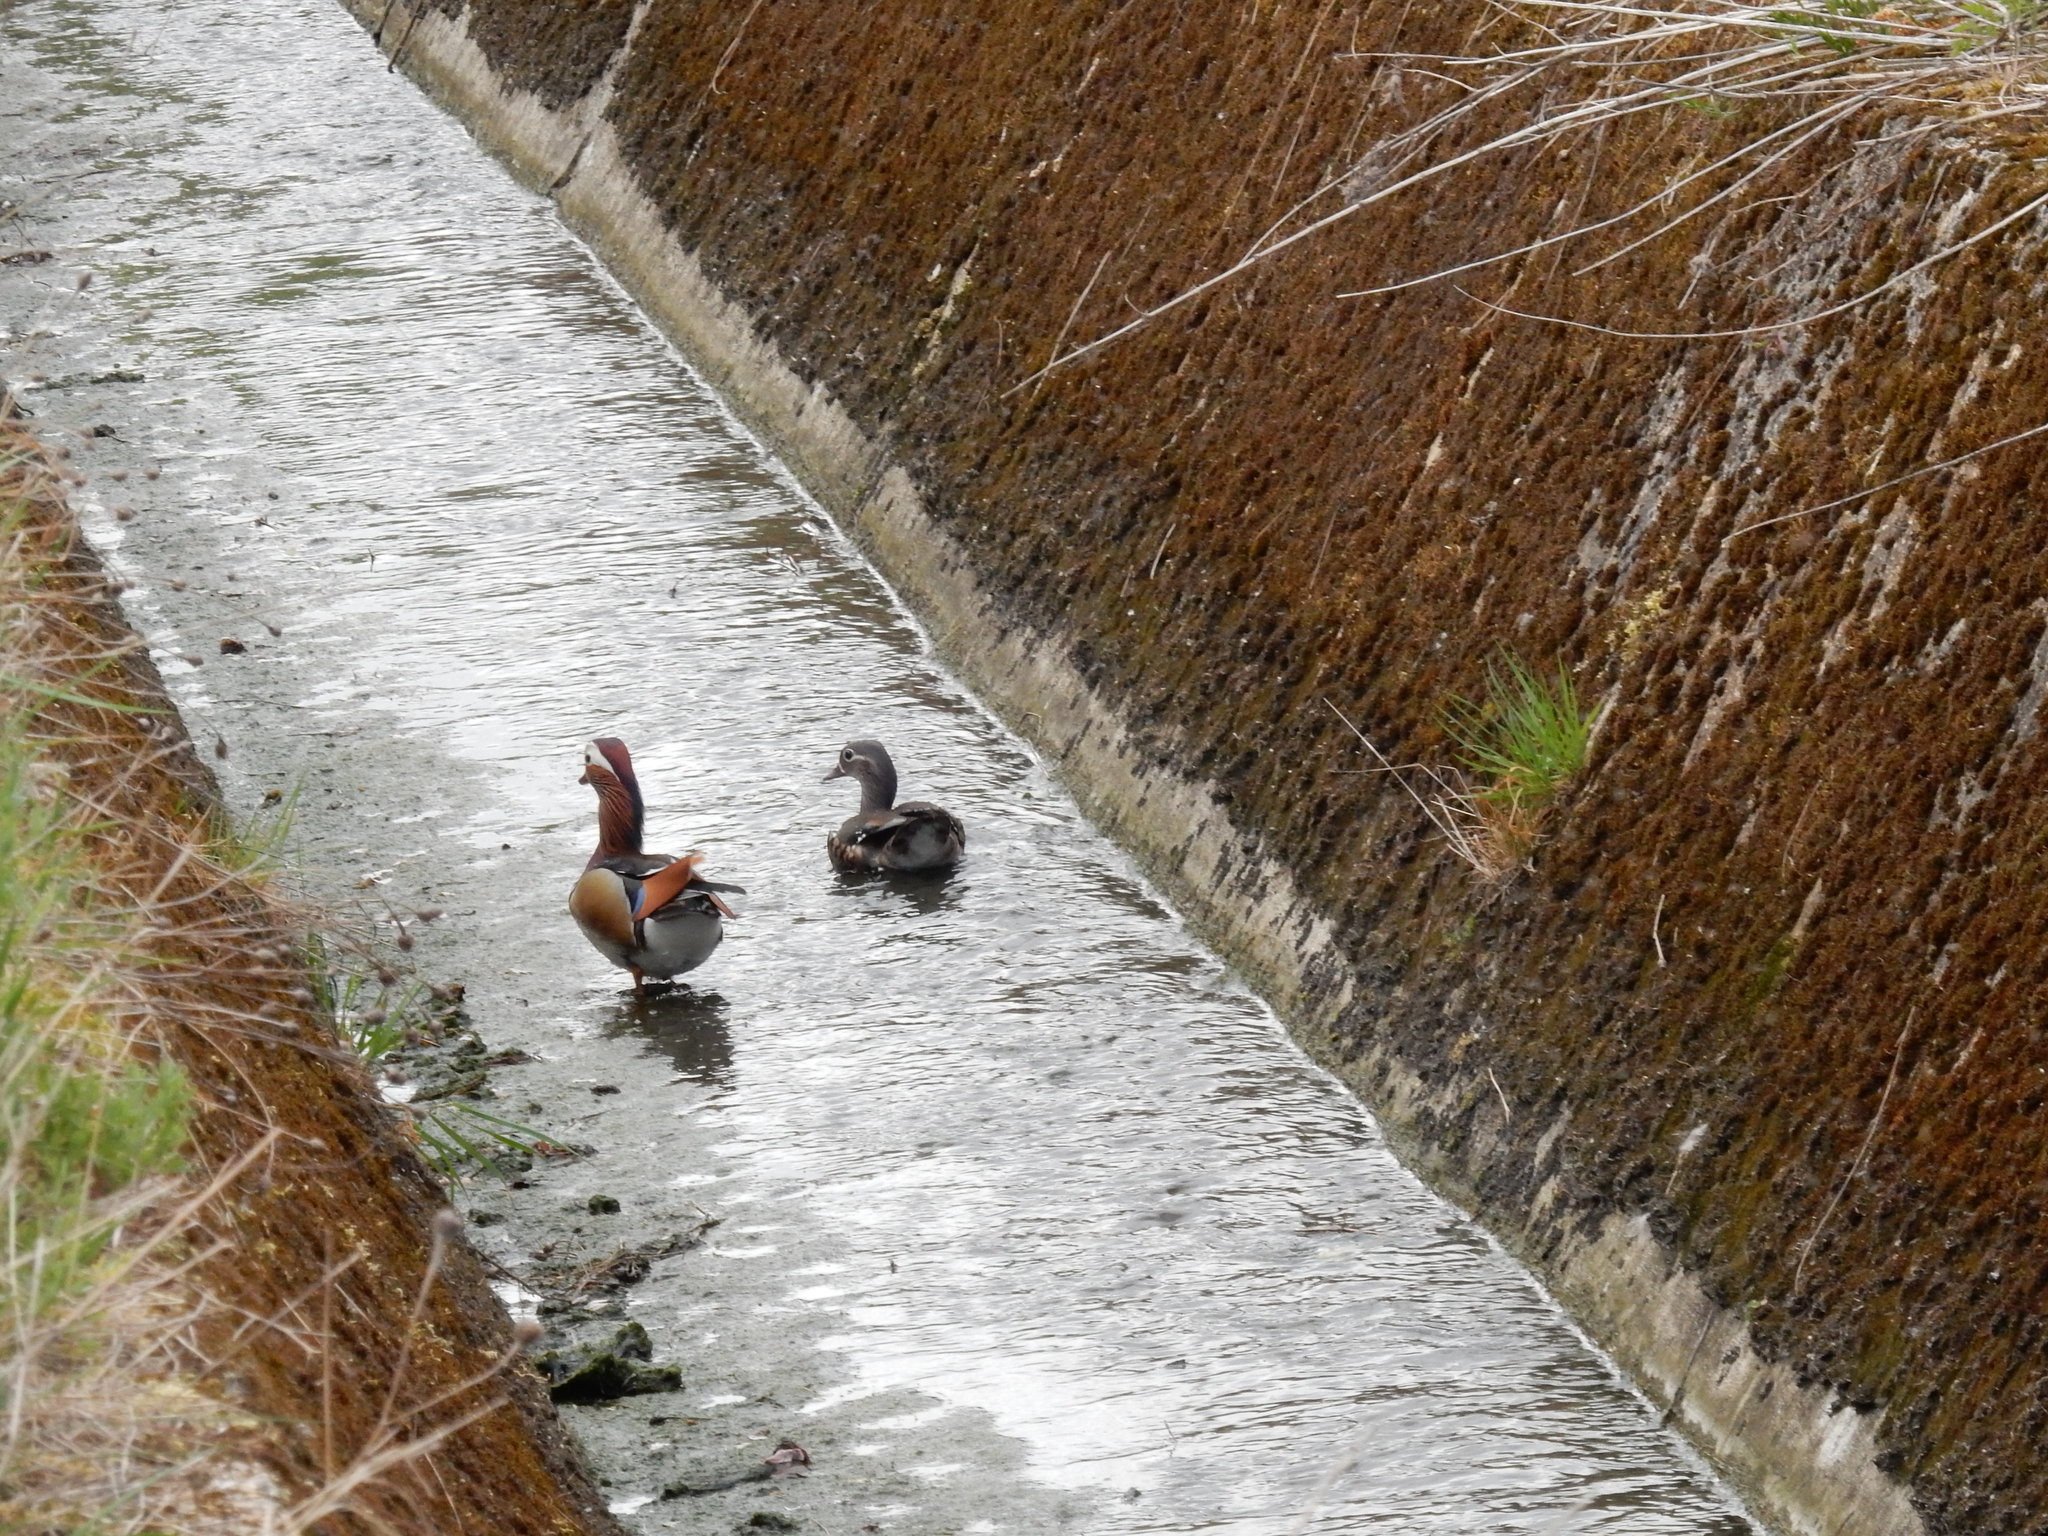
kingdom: Animalia
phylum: Chordata
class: Aves
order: Anseriformes
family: Anatidae
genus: Aix
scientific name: Aix galericulata
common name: Mandarin duck
